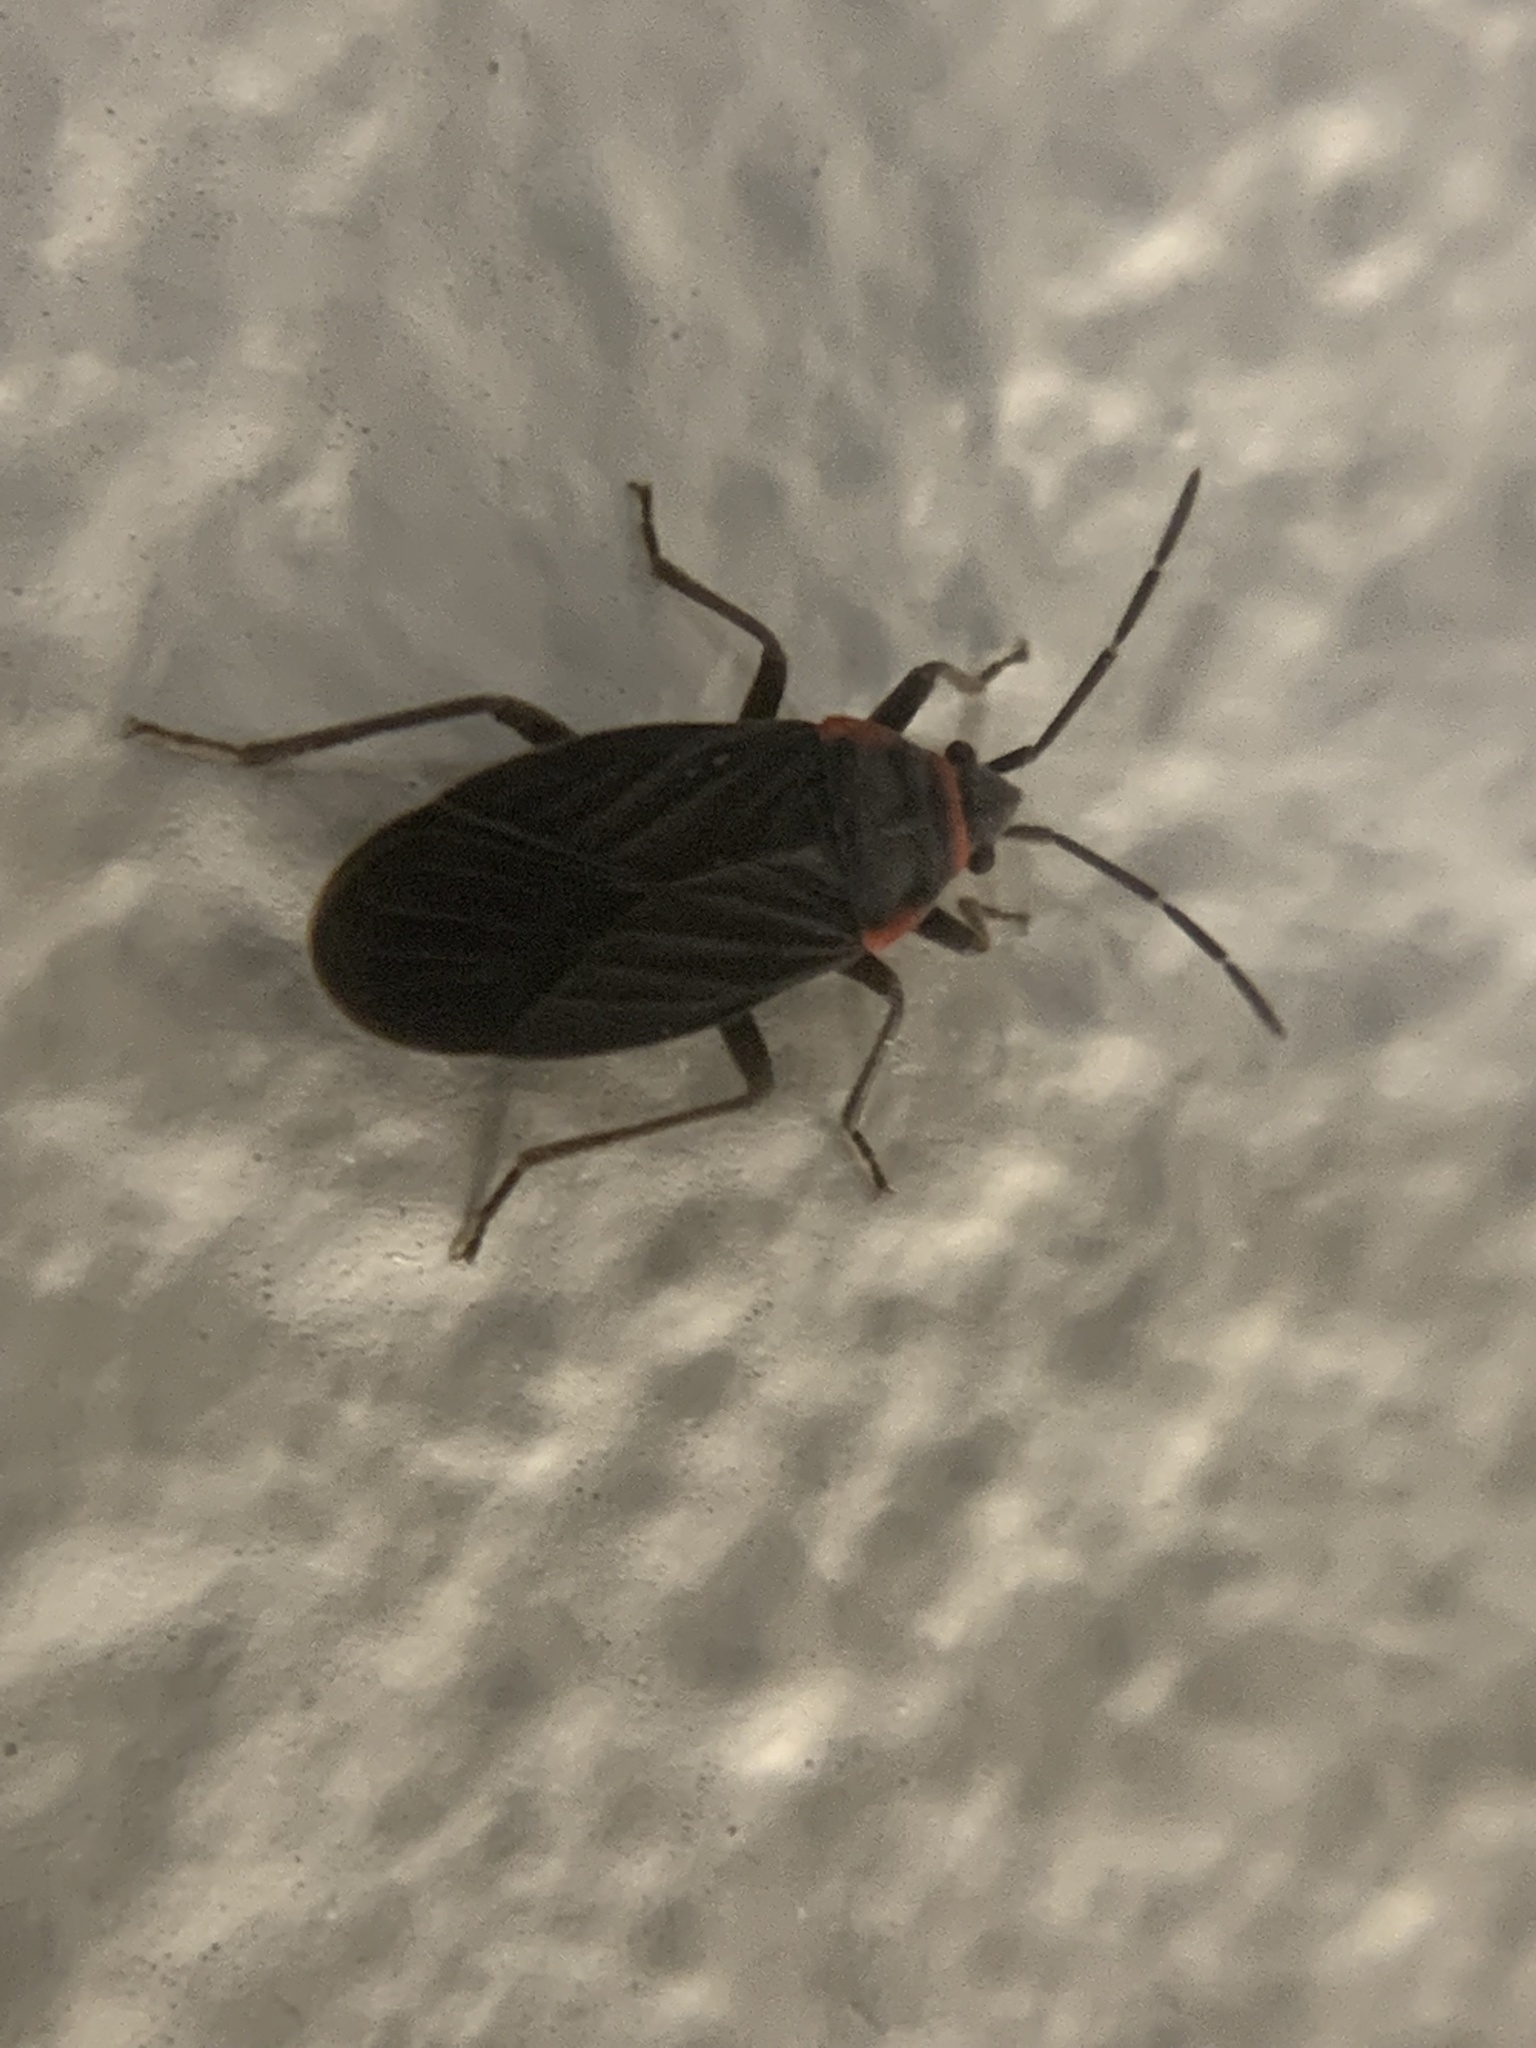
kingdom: Animalia
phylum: Arthropoda
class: Insecta
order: Hemiptera
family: Lygaeidae
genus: Melacoryphus
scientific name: Melacoryphus rubicollis
